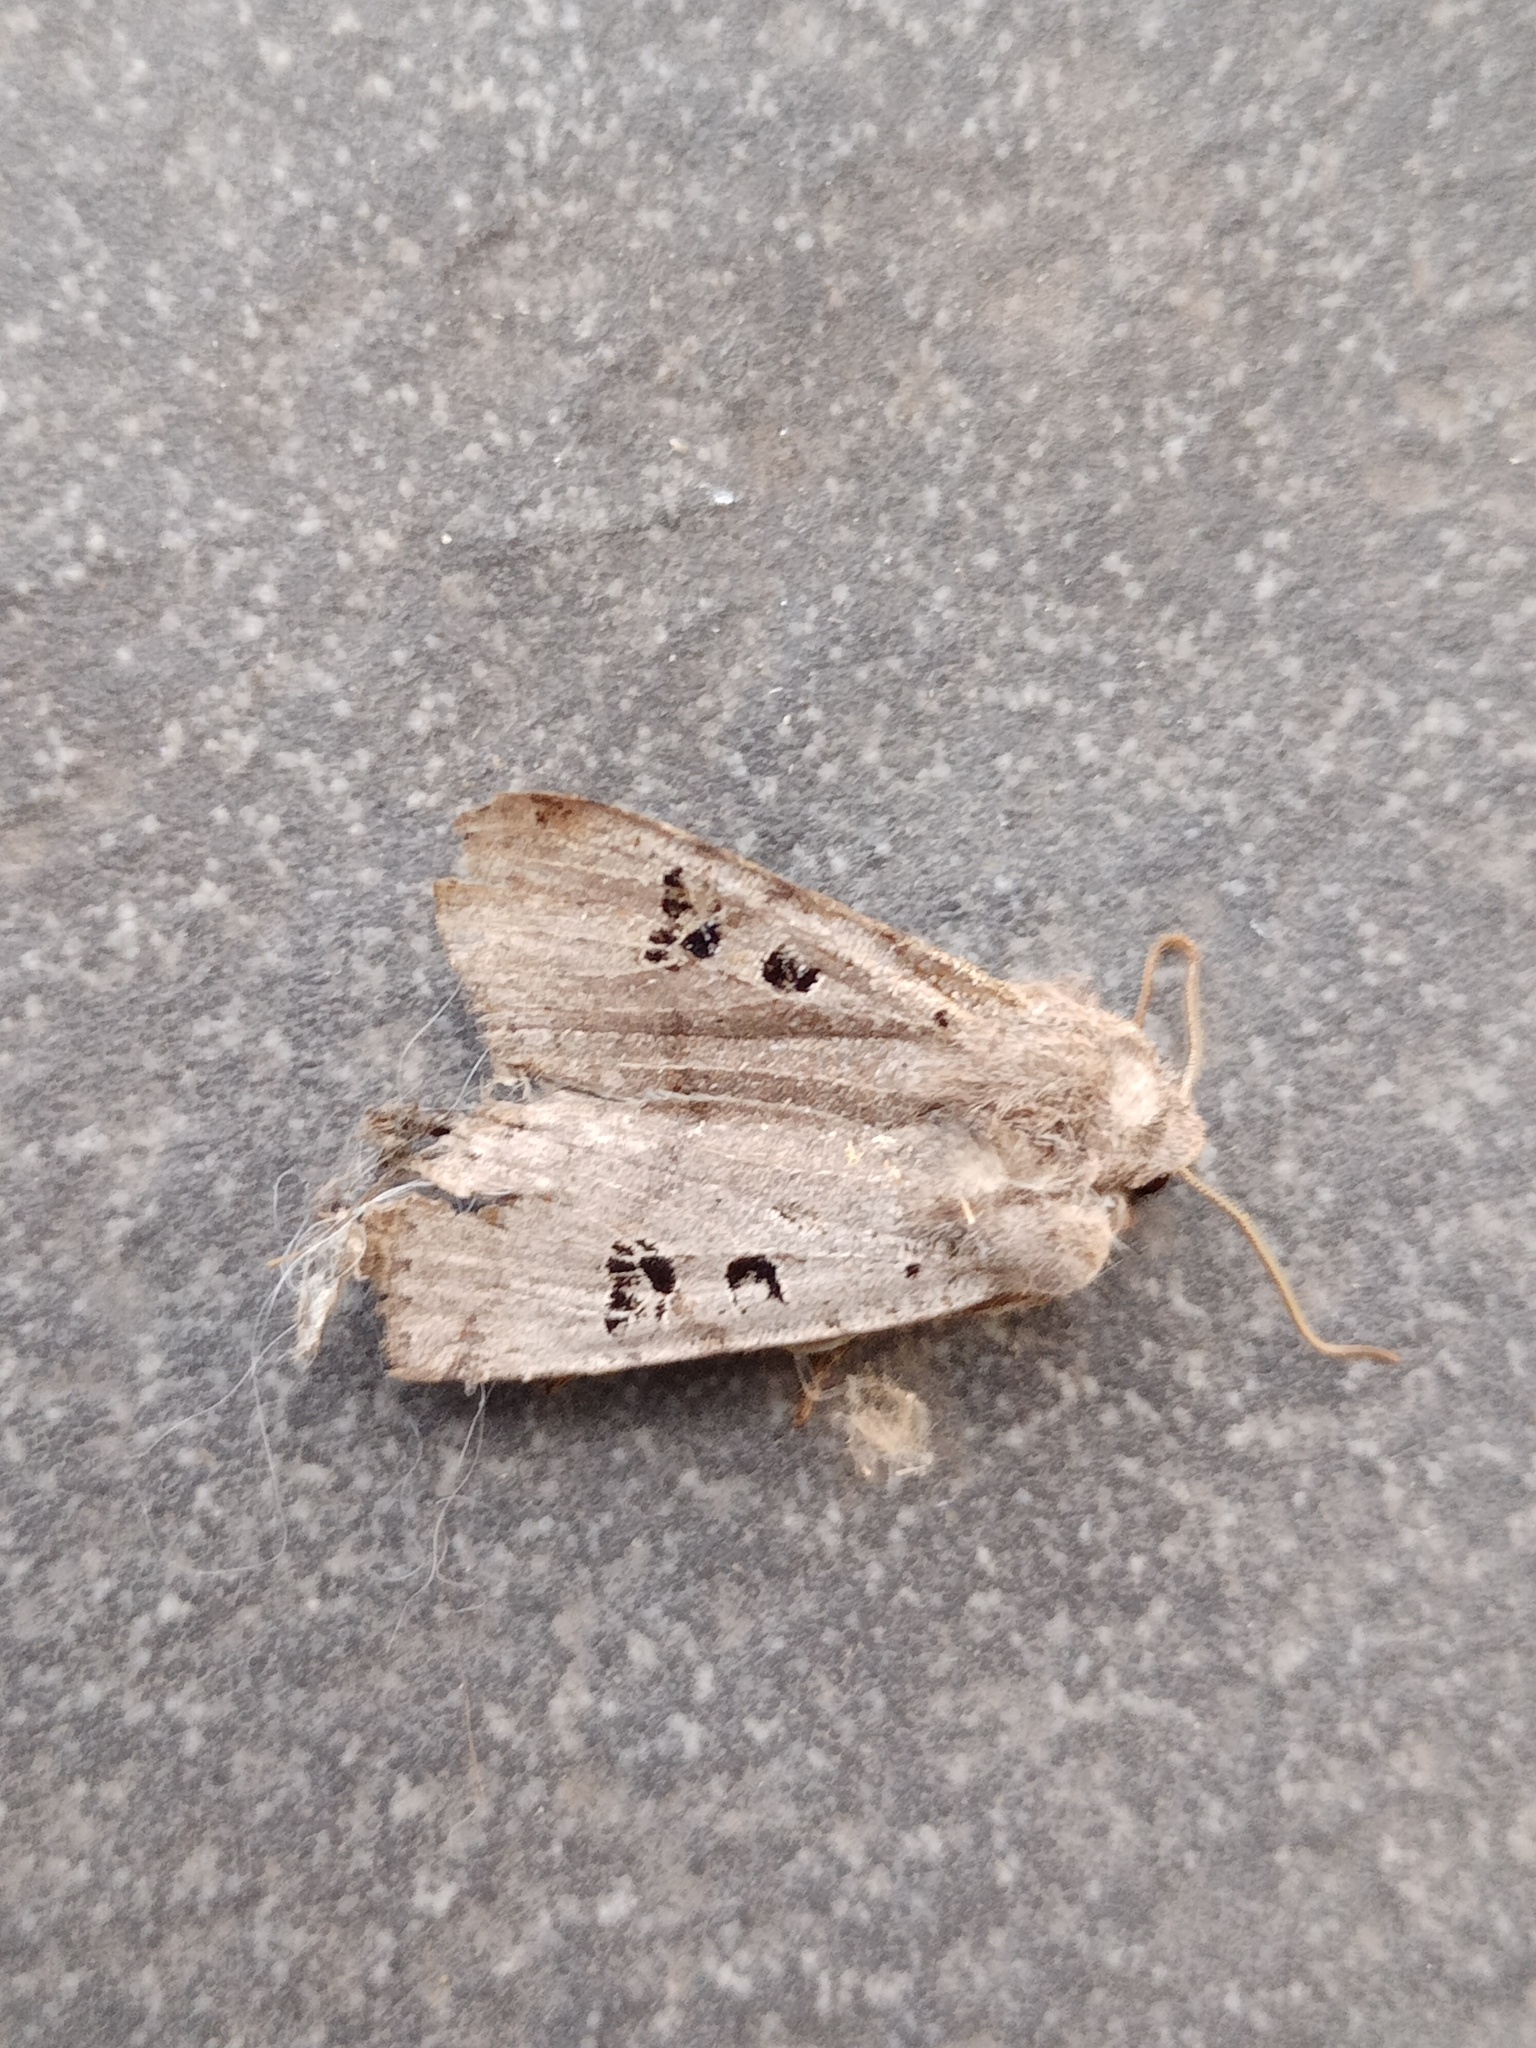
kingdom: Animalia
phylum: Arthropoda
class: Insecta
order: Lepidoptera
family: Noctuidae
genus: Conistra
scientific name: Conistra rubiginosa
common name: Black-spotted chestnut
